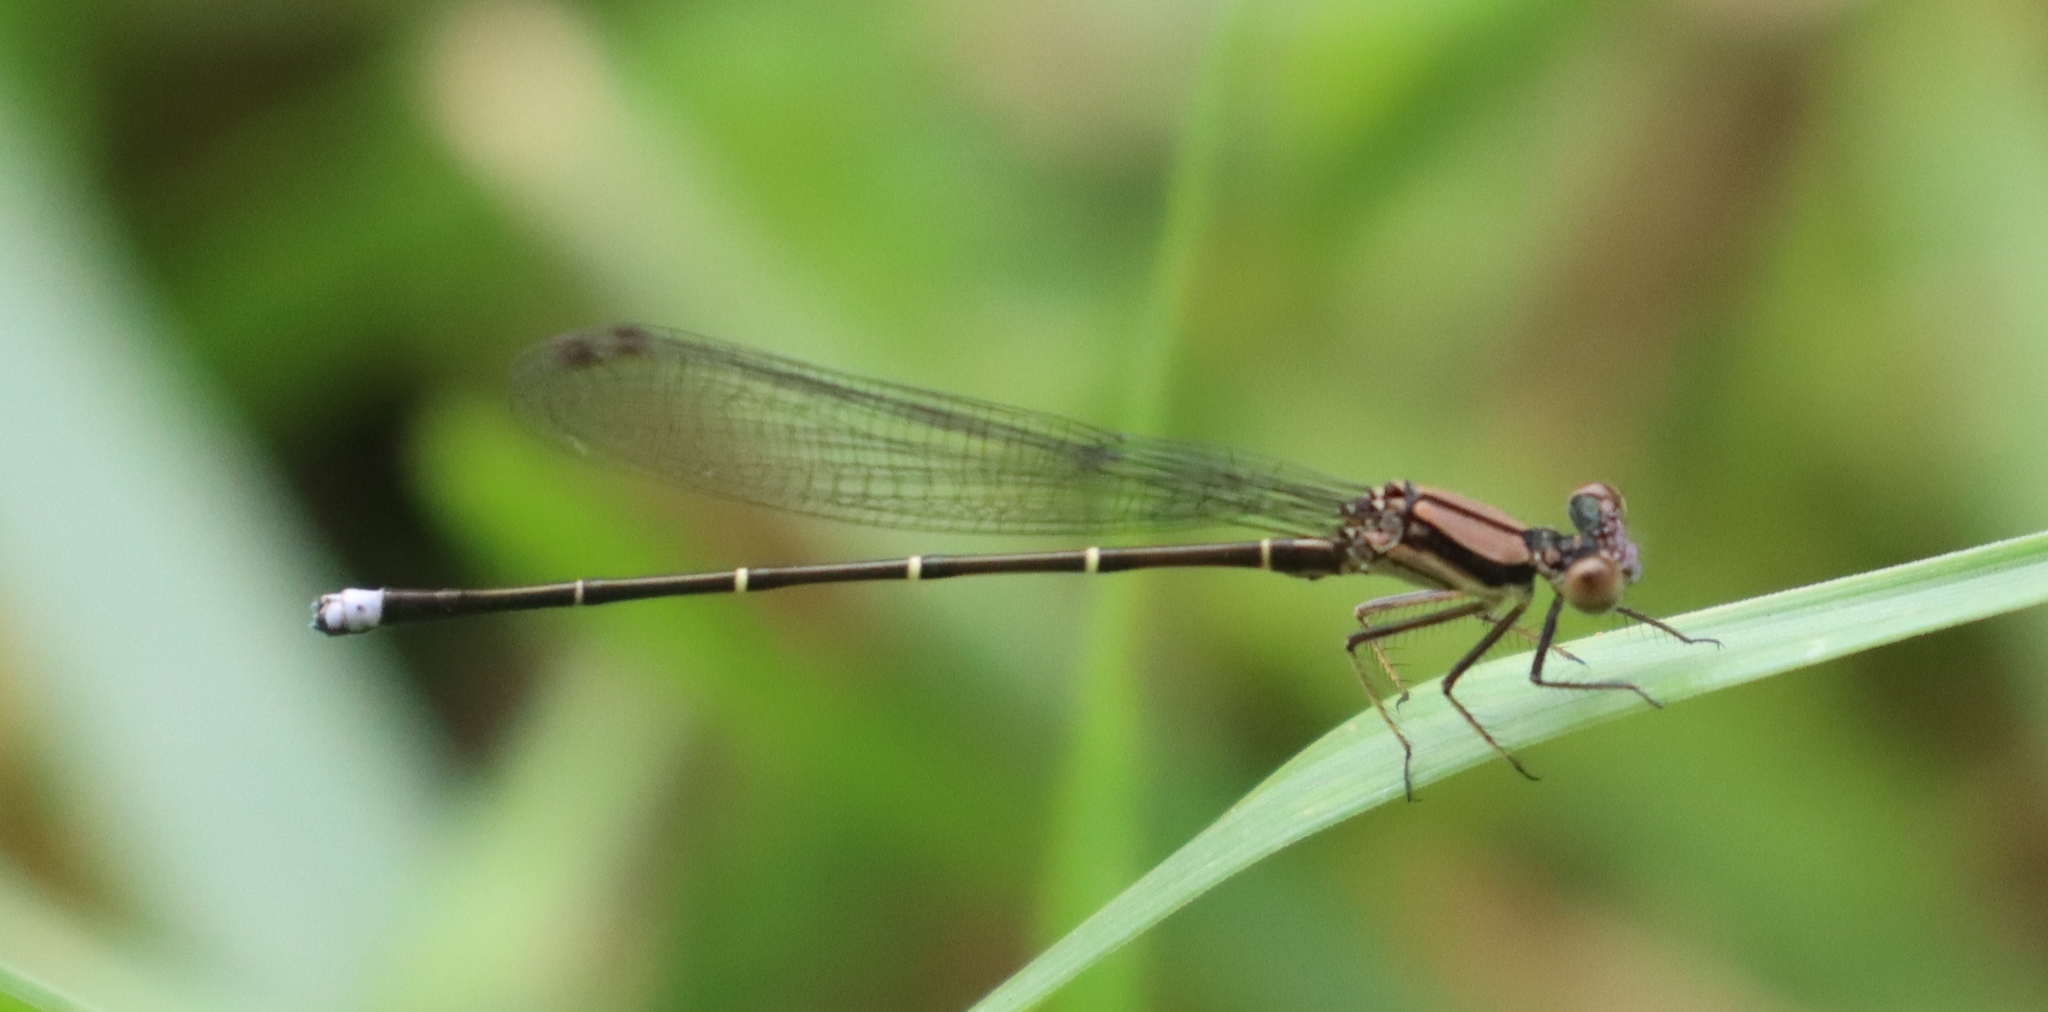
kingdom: Animalia
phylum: Arthropoda
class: Insecta
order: Odonata
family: Coenagrionidae
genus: Argia
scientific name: Argia tibialis
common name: Blue-tipped dancer
